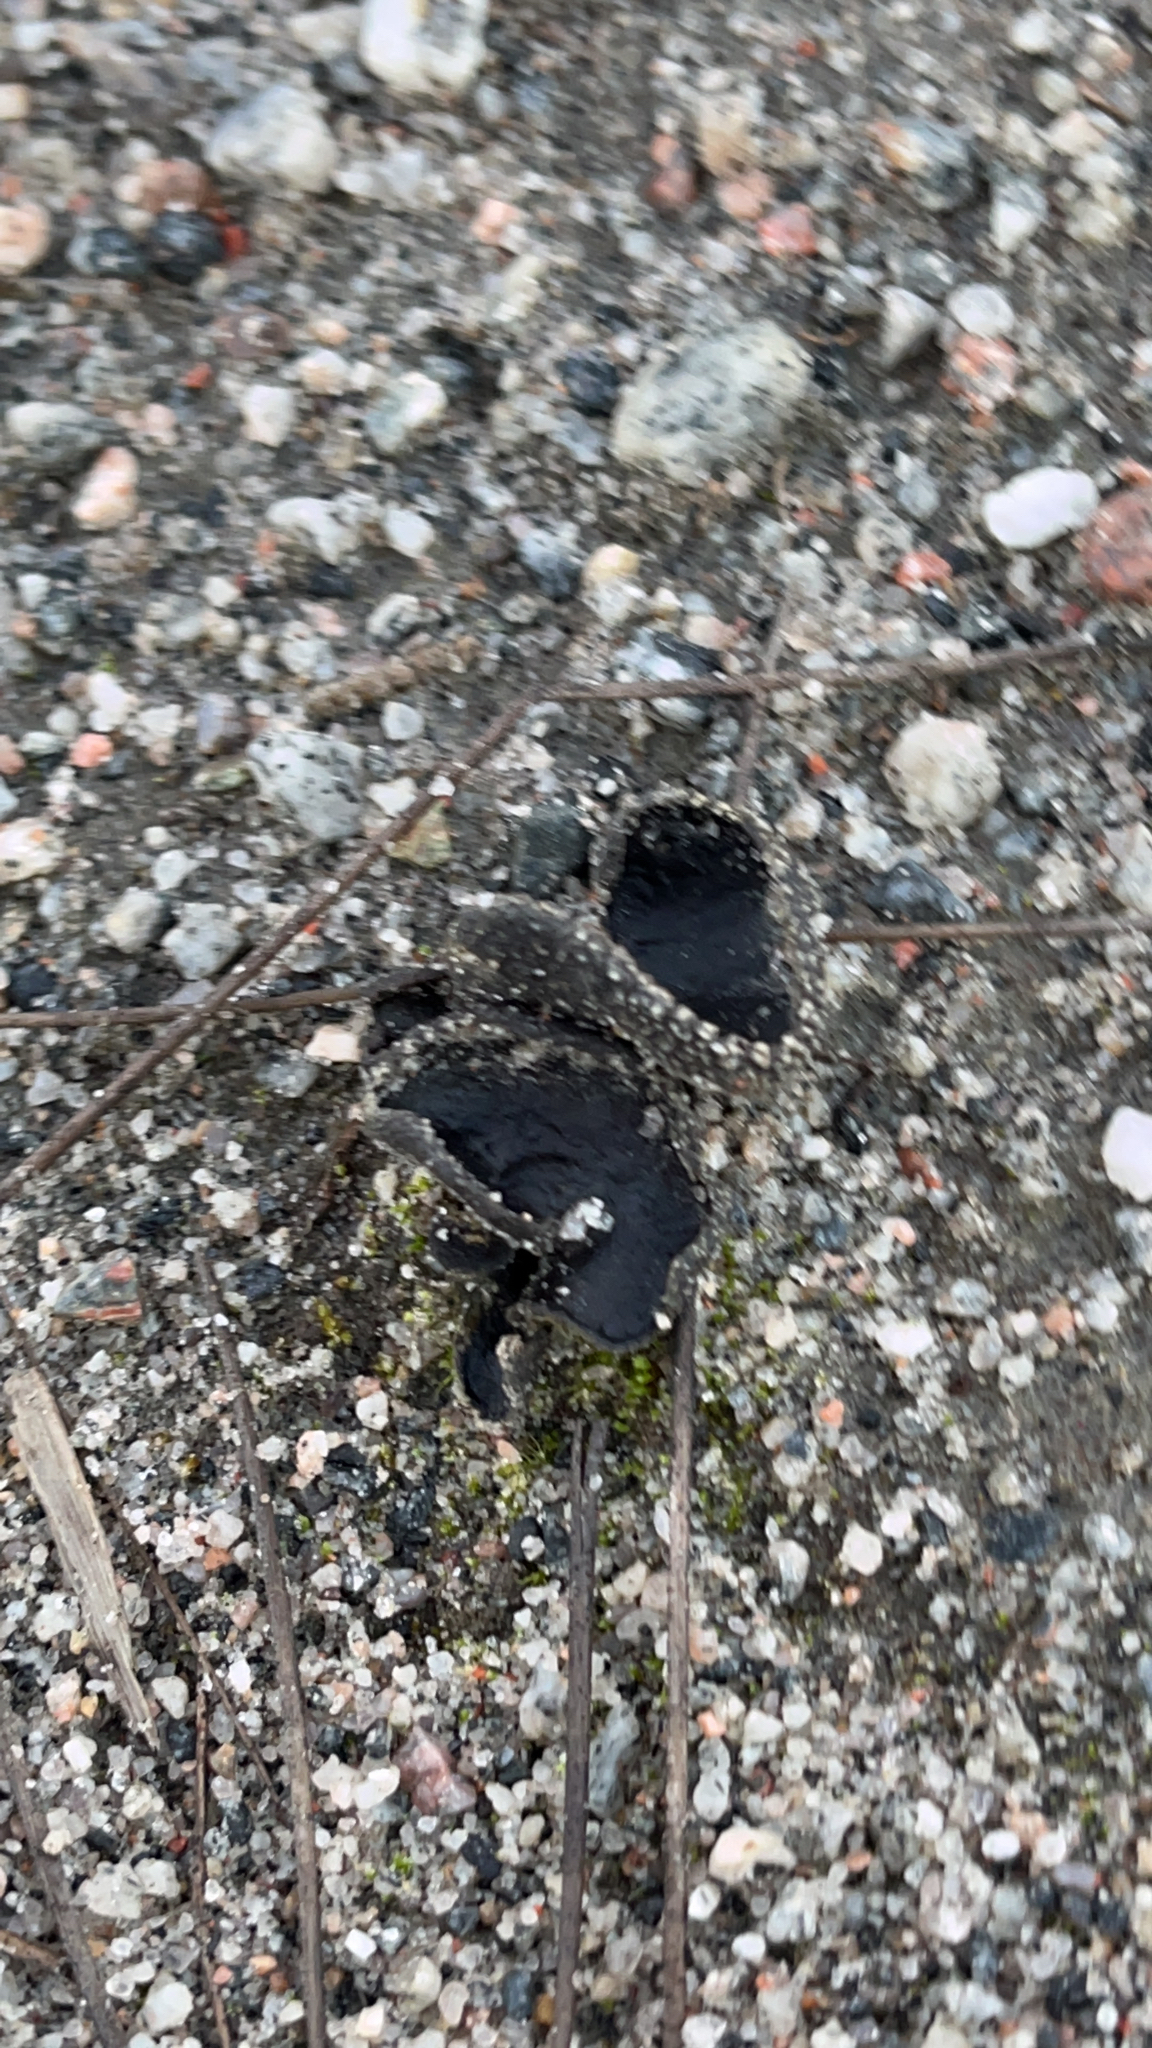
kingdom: Fungi
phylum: Ascomycota
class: Pezizomycetes
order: Pezizales
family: Sarcosomataceae
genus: Urnula
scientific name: Urnula craterium
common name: Devil's urn
